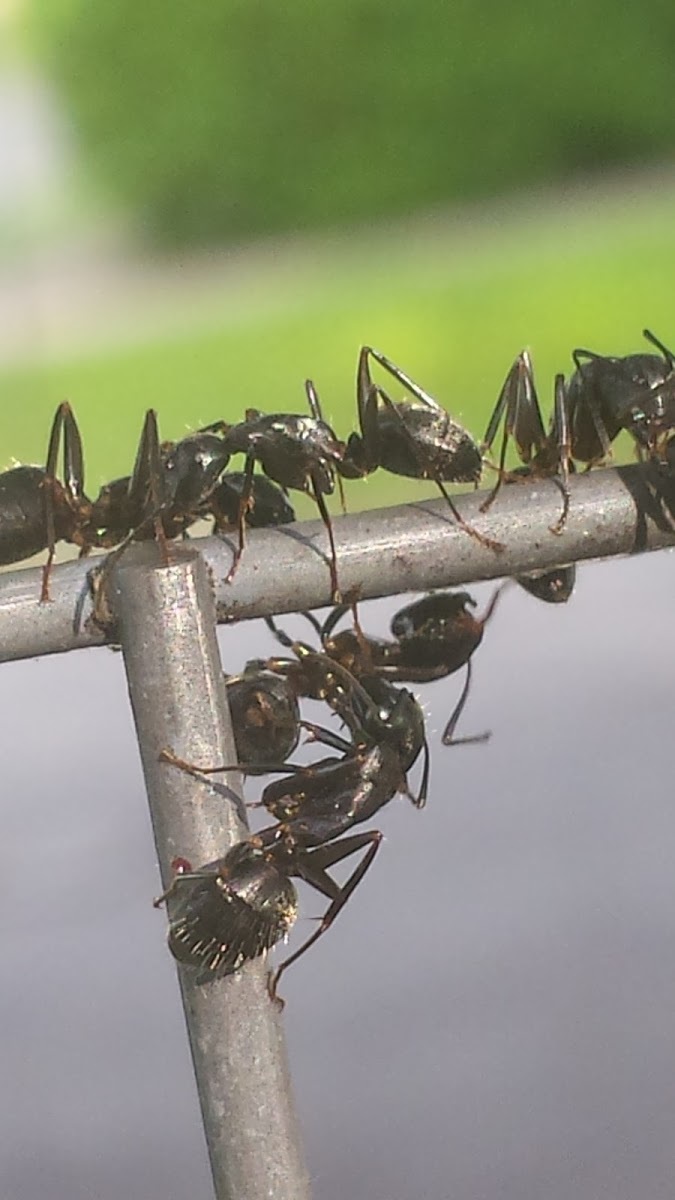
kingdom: Animalia
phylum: Arthropoda
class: Insecta
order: Hymenoptera
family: Formicidae
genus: Camponotus
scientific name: Camponotus pennsylvanicus
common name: Black carpenter ant
